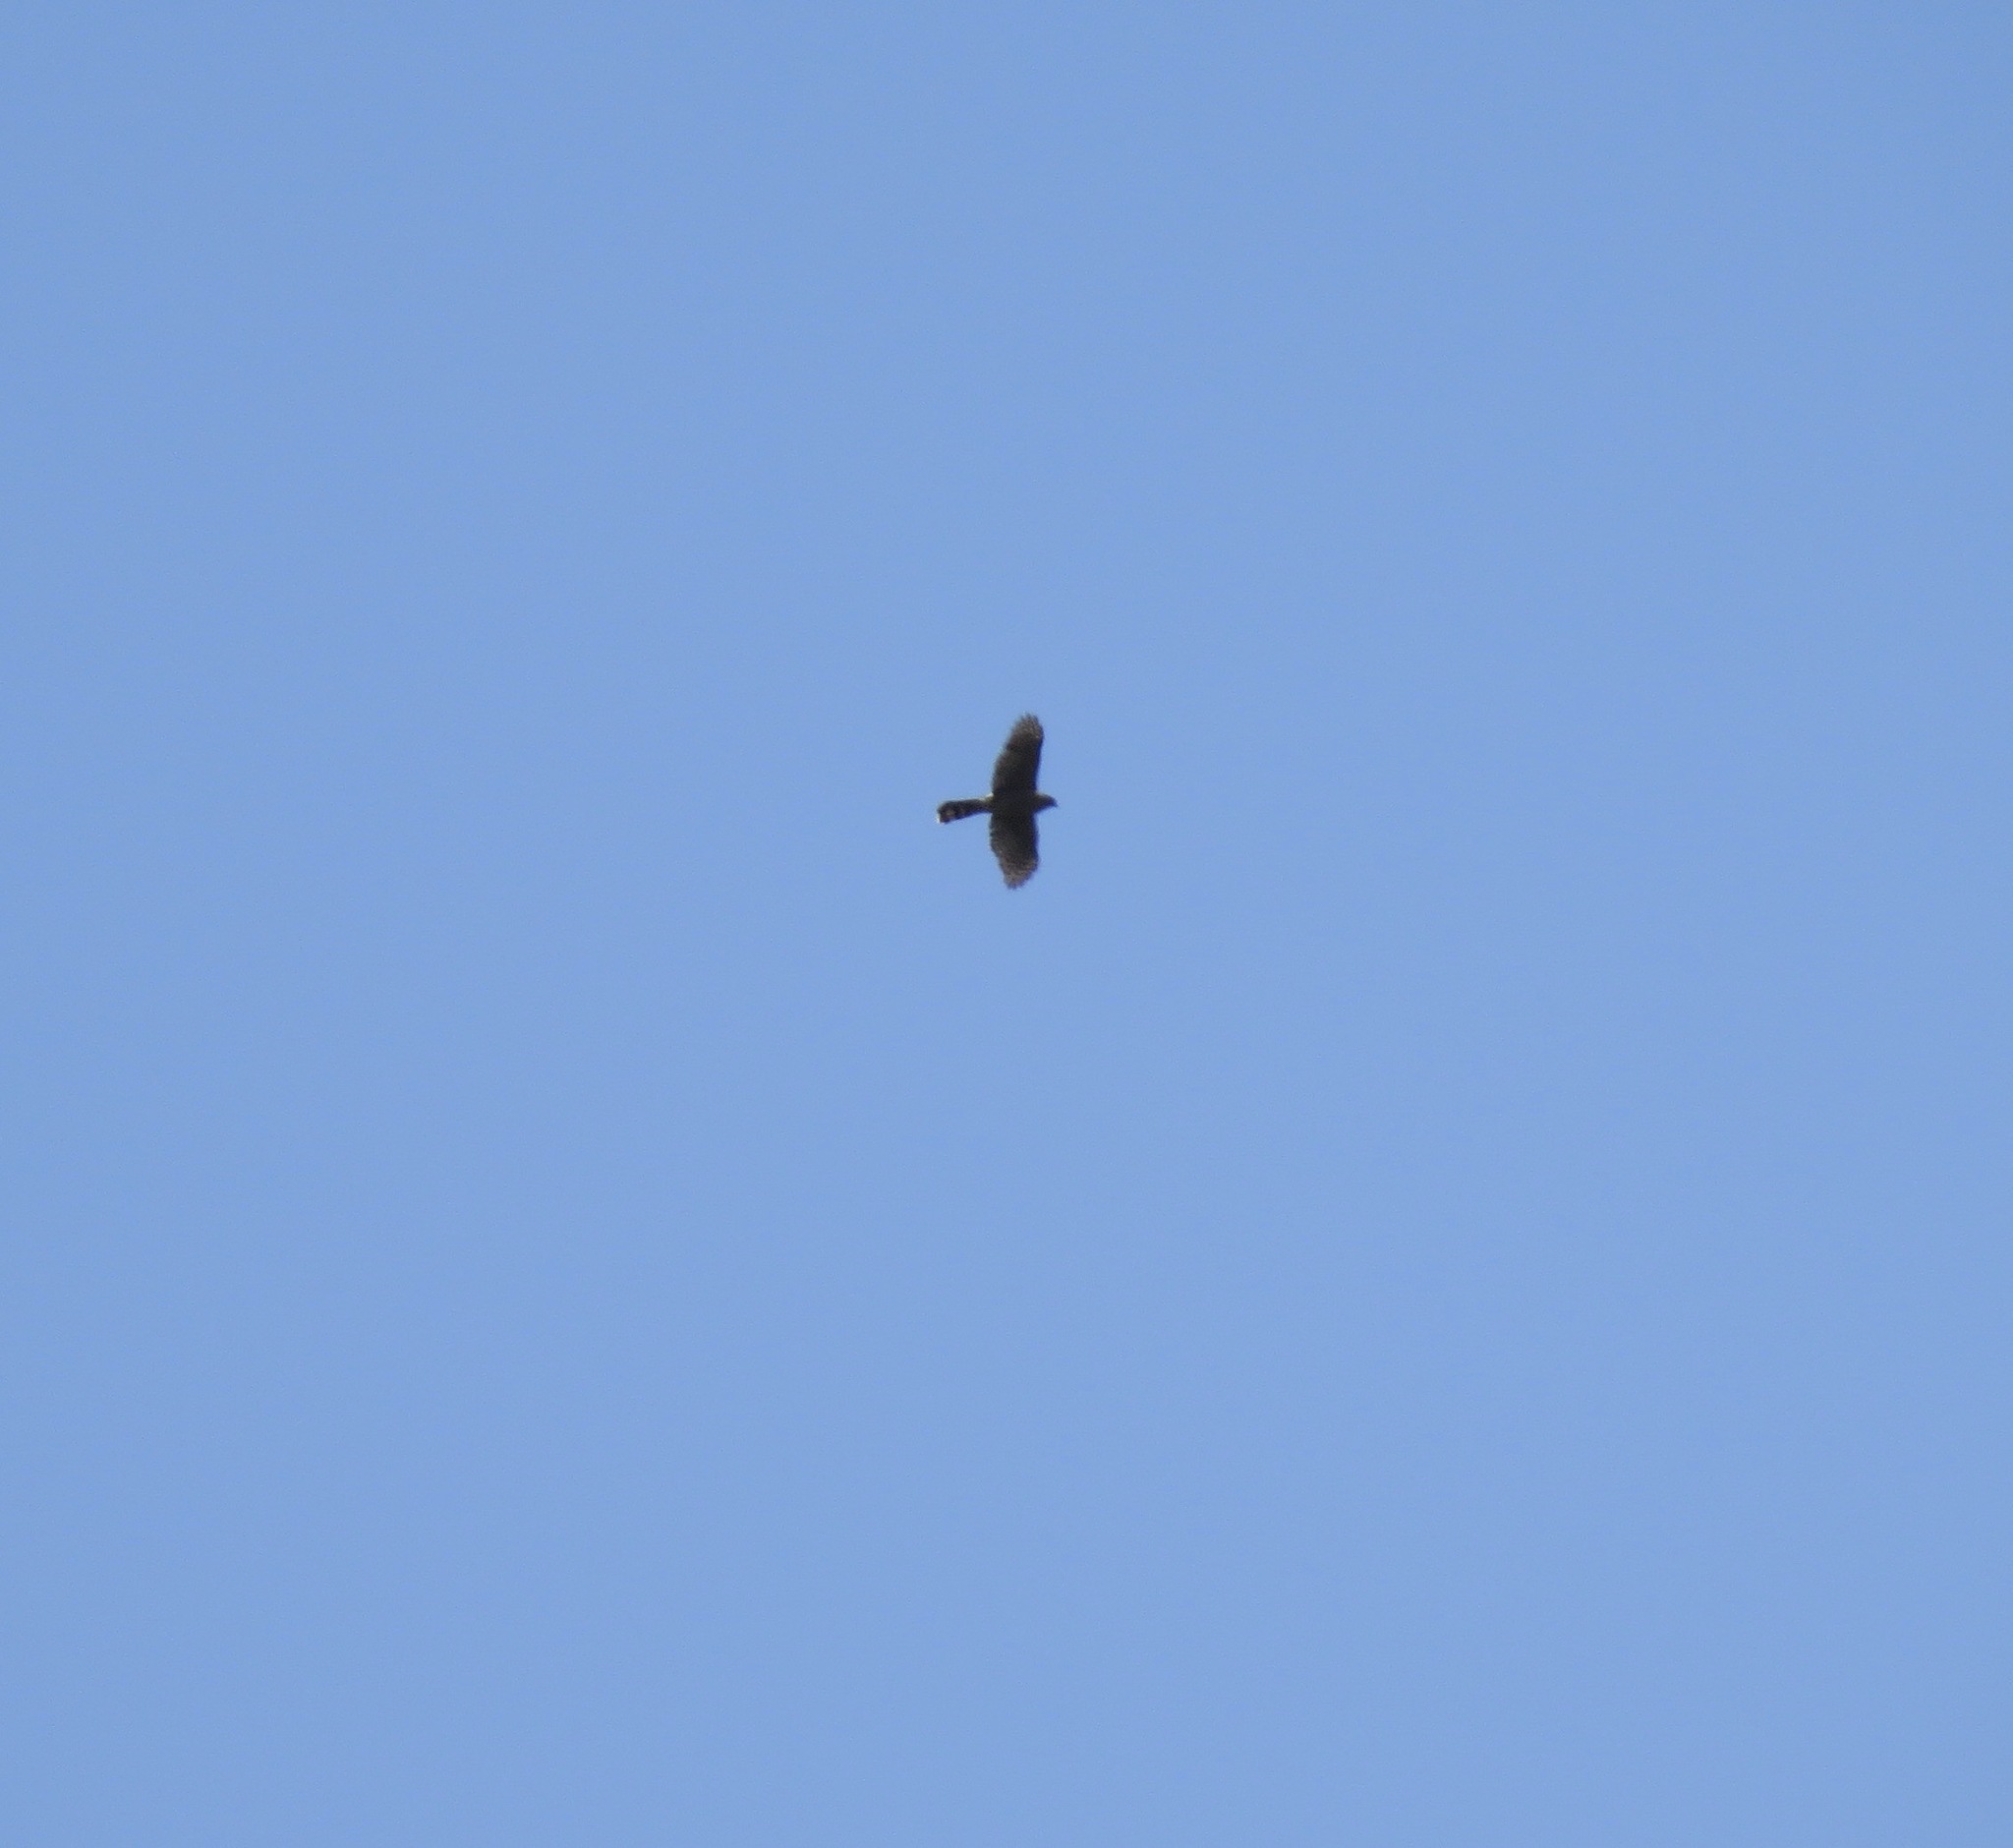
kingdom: Animalia
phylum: Chordata
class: Aves
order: Accipitriformes
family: Accipitridae
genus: Accipiter
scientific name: Accipiter cooperii
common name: Cooper's hawk
